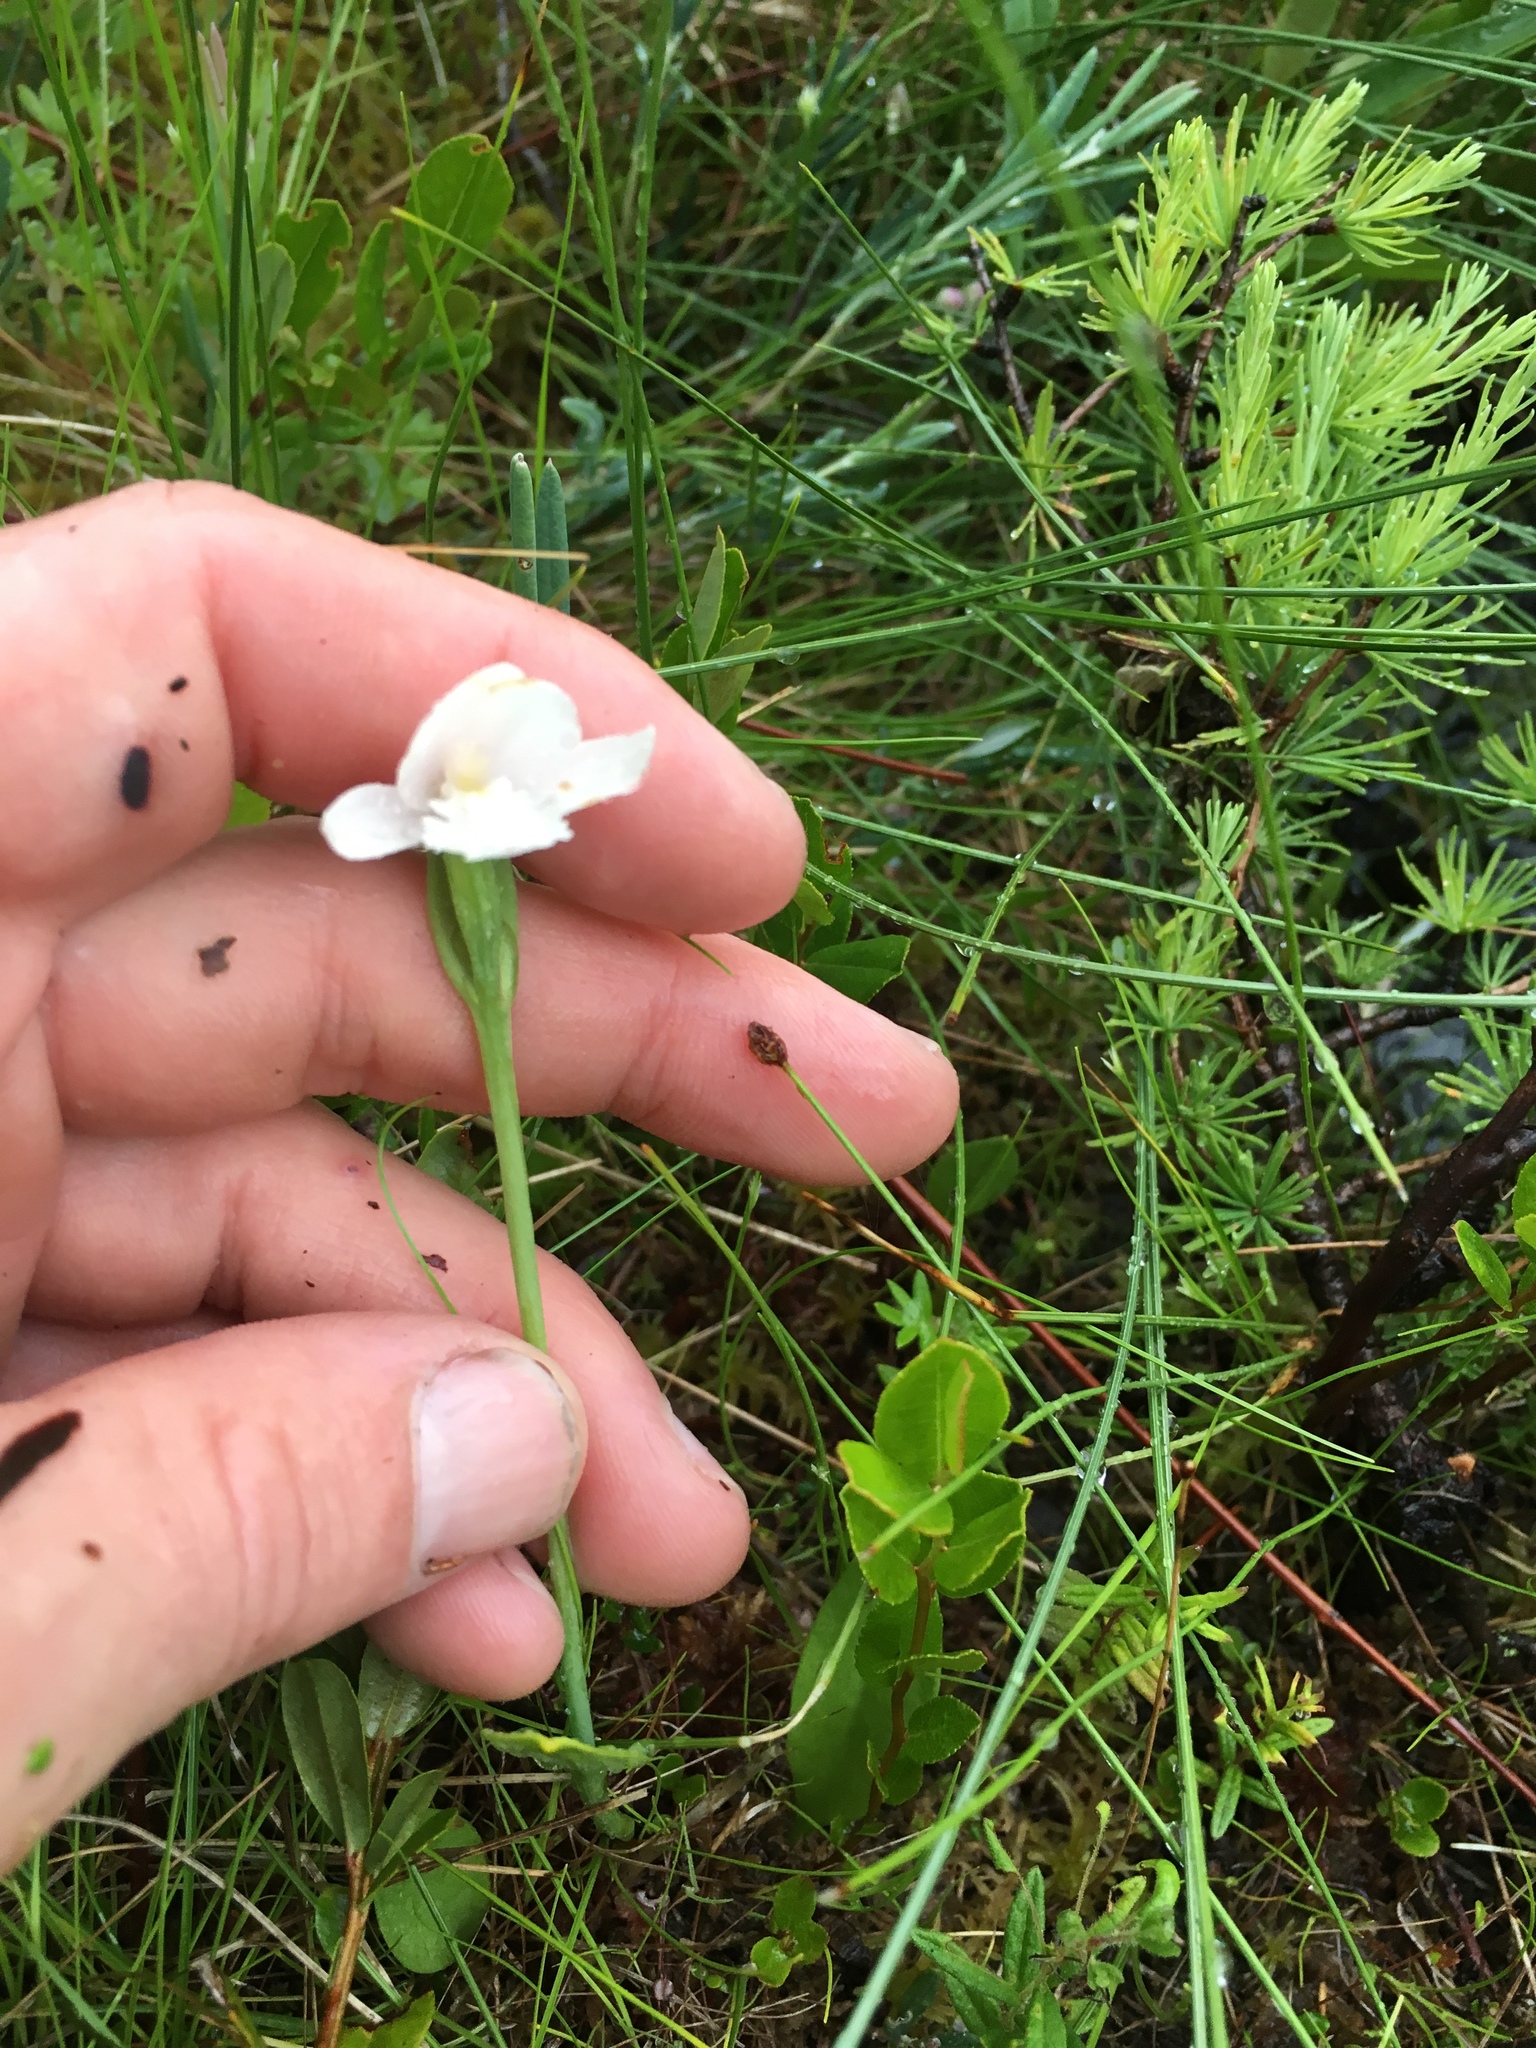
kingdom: Plantae
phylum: Tracheophyta
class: Liliopsida
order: Asparagales
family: Orchidaceae
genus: Pogonia
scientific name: Pogonia ophioglossoides
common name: Rose pogonia
